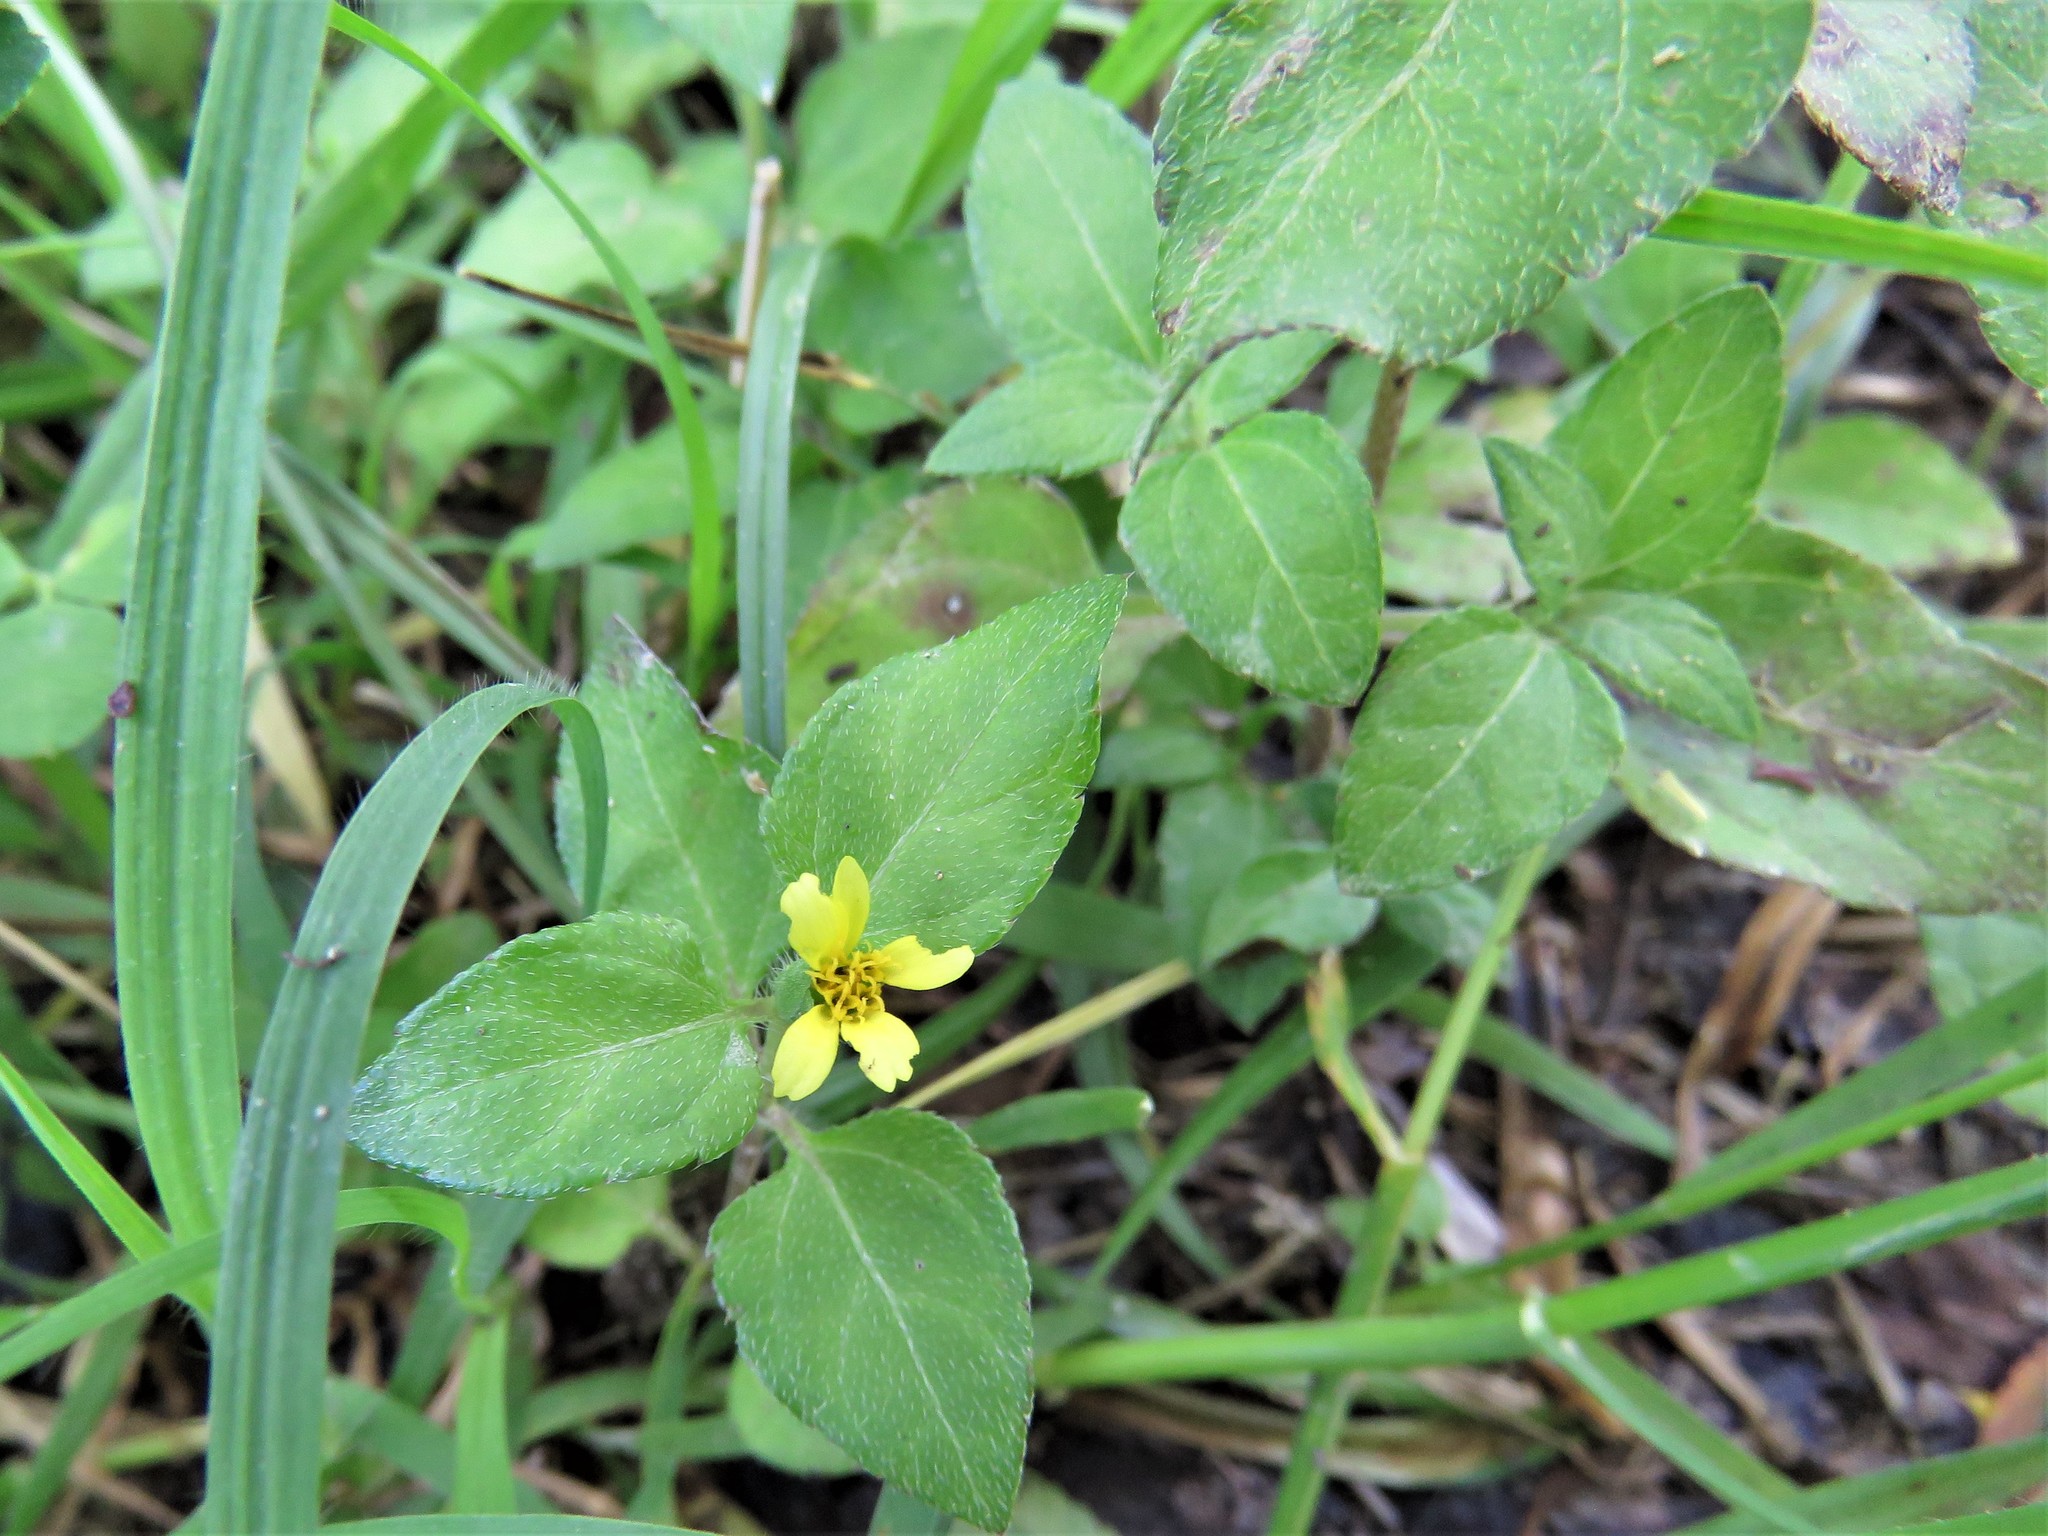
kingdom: Plantae
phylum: Tracheophyta
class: Magnoliopsida
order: Asterales
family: Asteraceae
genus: Calyptocarpus
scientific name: Calyptocarpus vialis
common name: Straggler daisy
